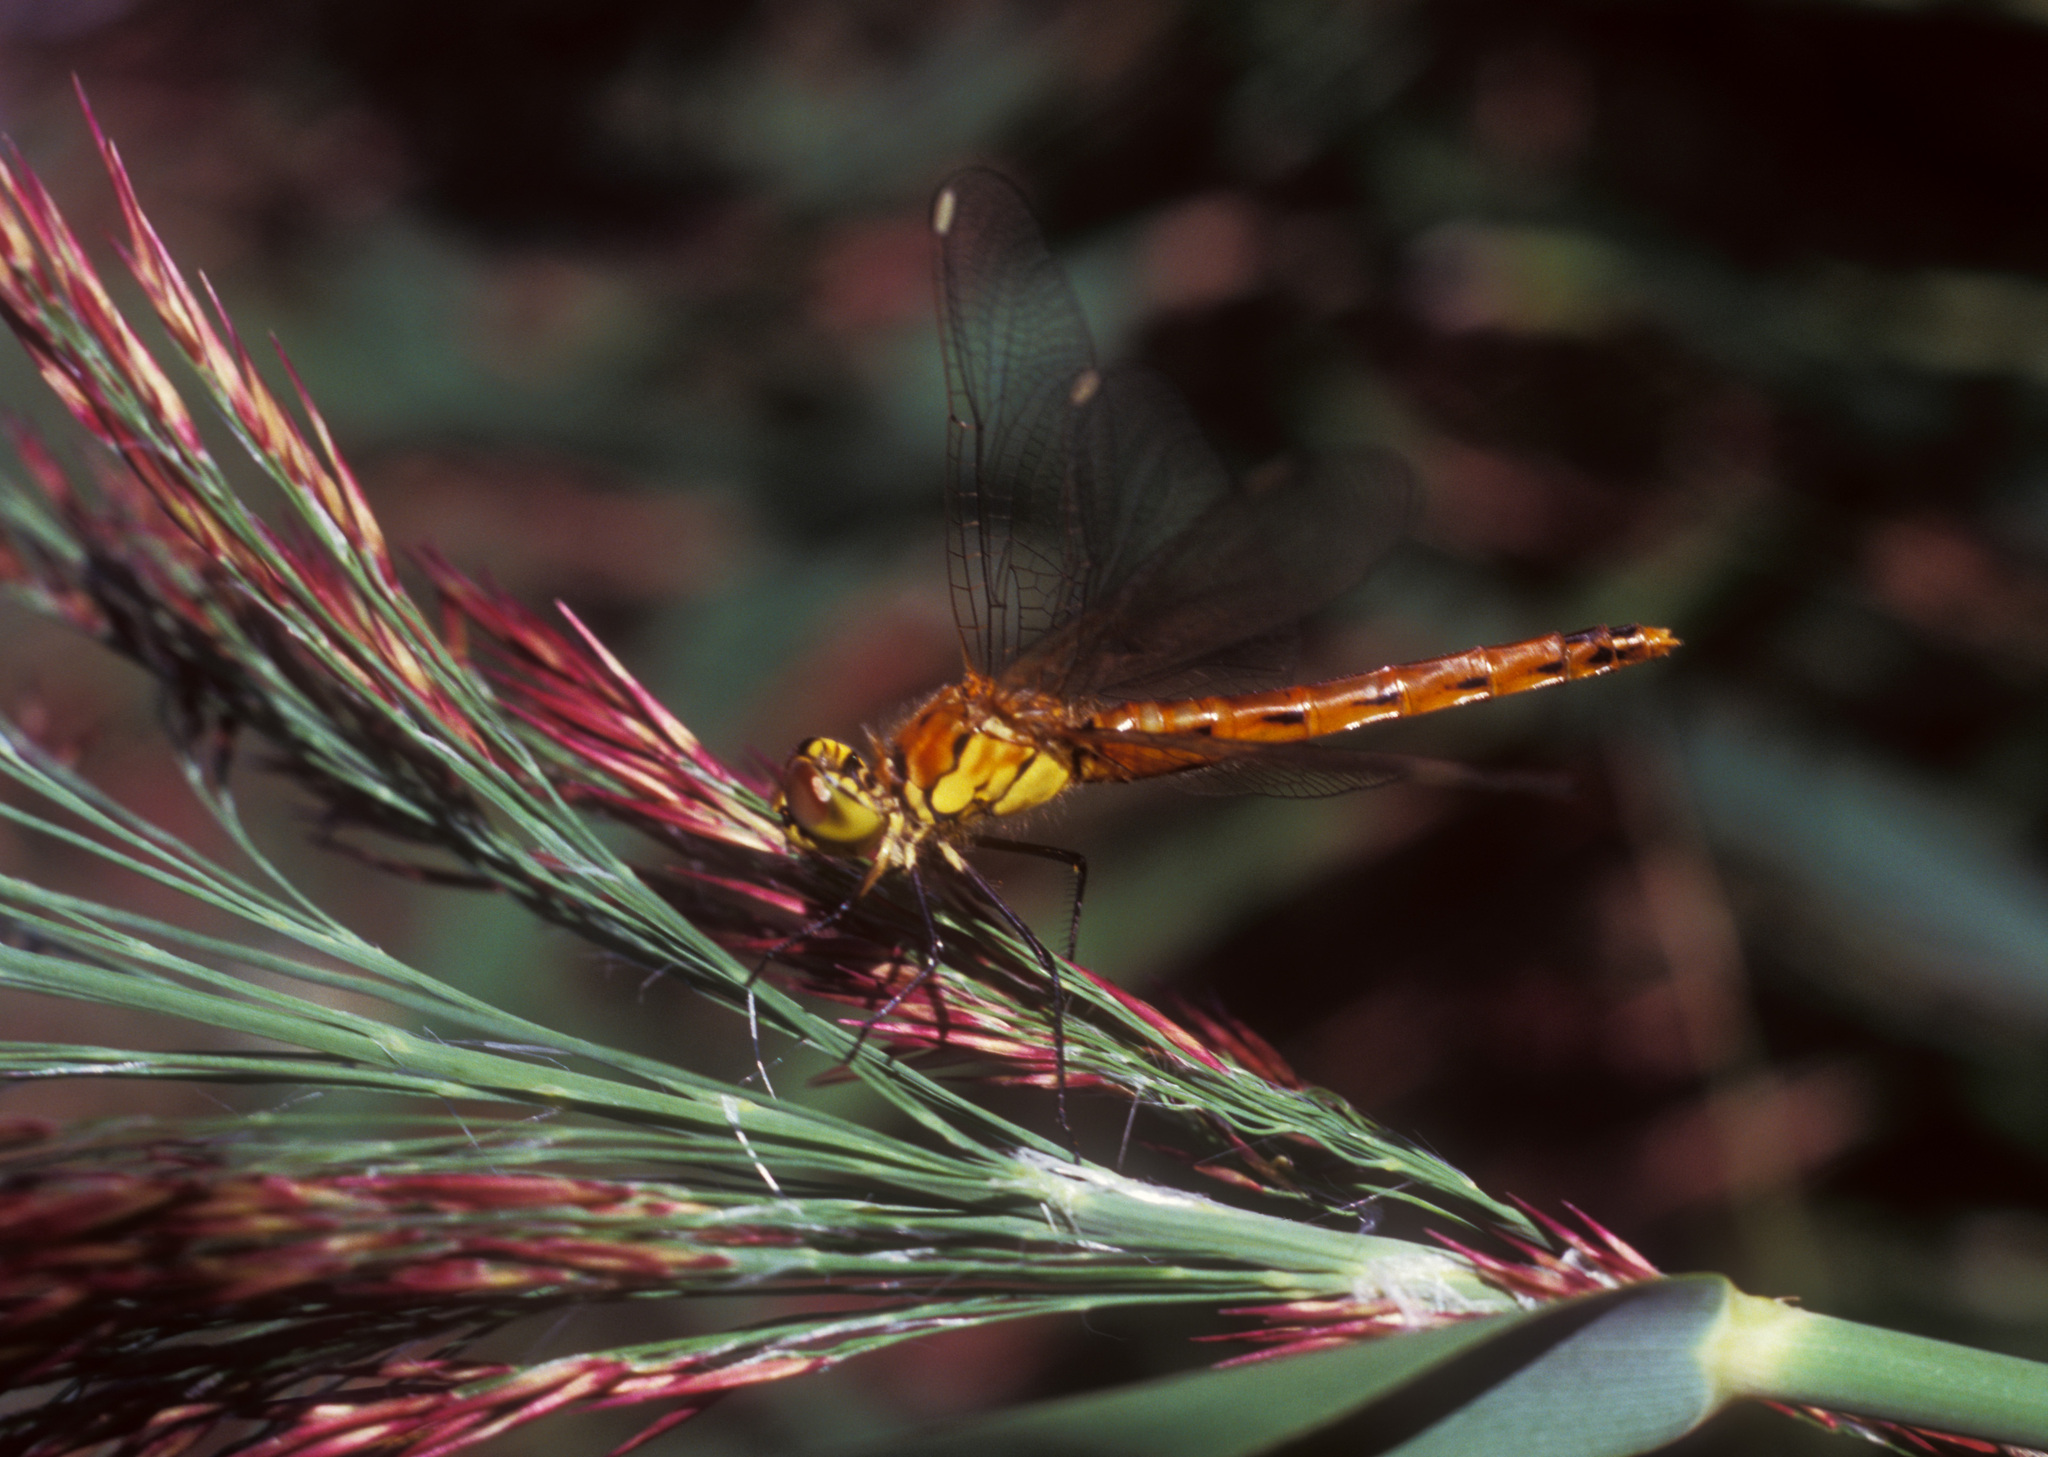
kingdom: Animalia
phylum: Arthropoda
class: Insecta
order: Odonata
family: Libellulidae
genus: Sympetrum
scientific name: Sympetrum depressiusculum
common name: Spotted darter
